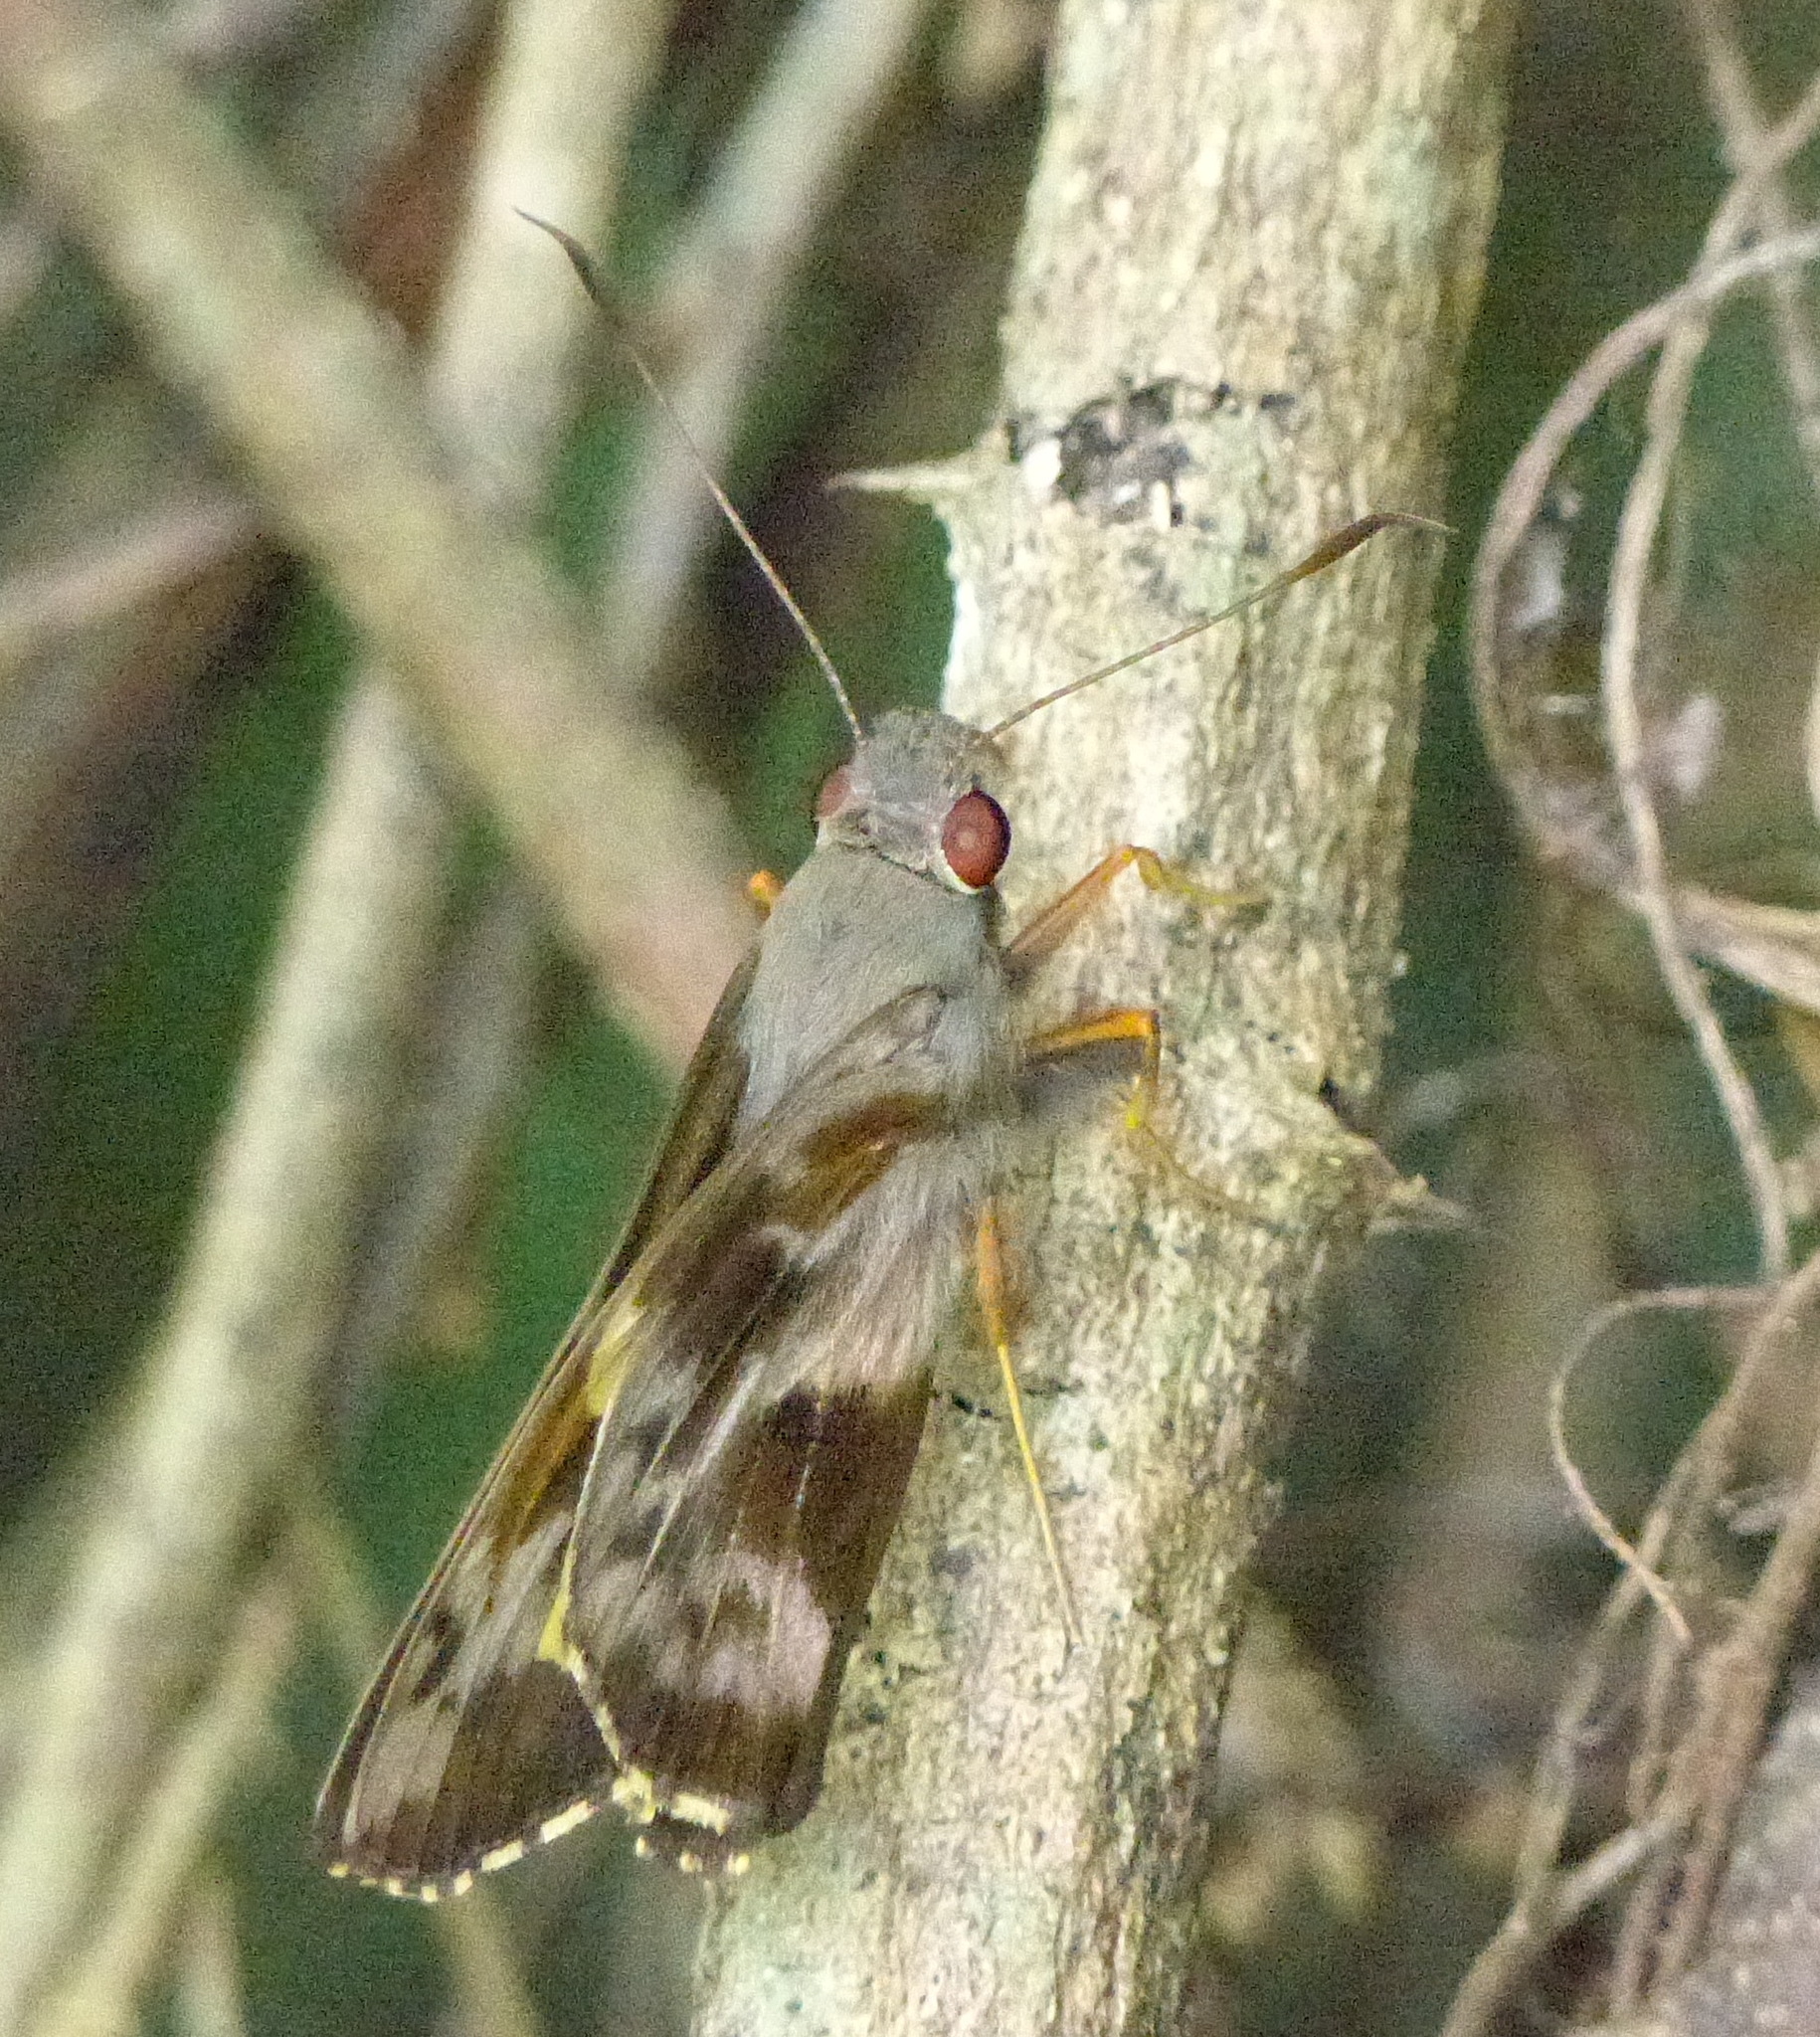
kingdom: Animalia
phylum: Arthropoda
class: Insecta
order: Lepidoptera
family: Hesperiidae
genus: Perichares
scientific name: Perichares philetes
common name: Green-backed ruby-eye
